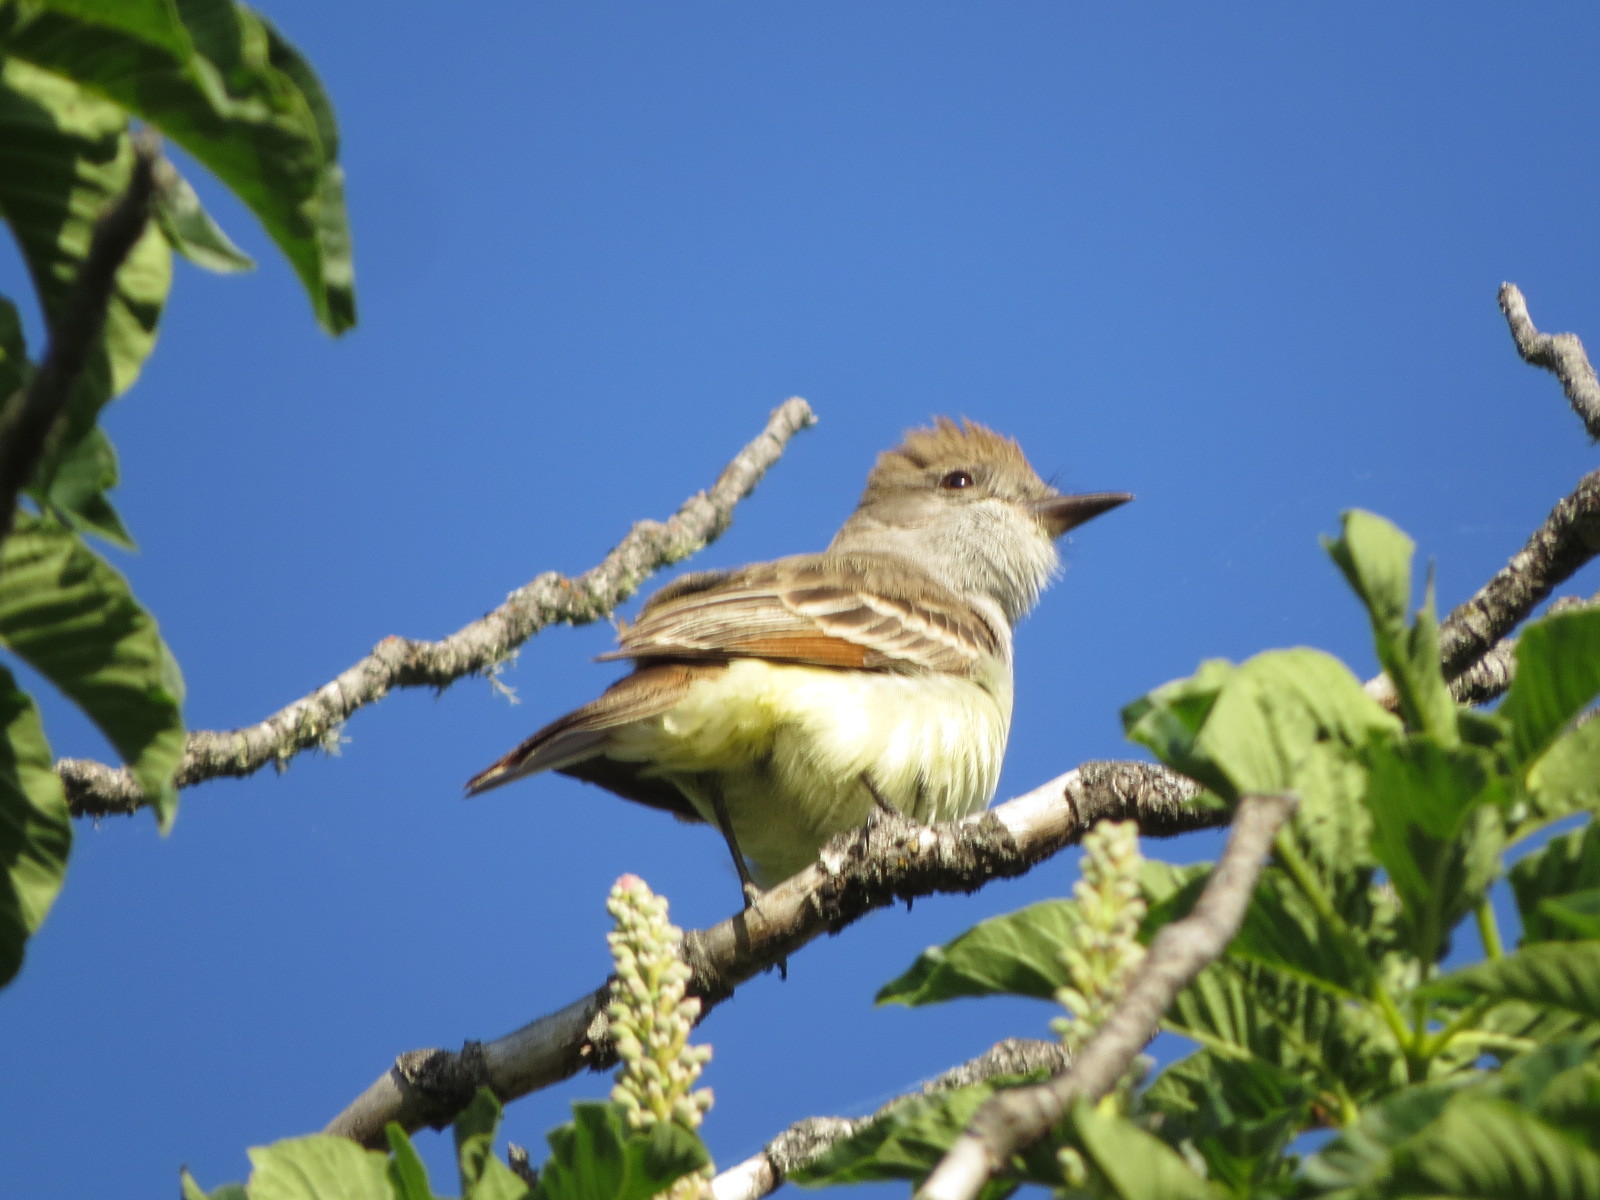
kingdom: Animalia
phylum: Chordata
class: Aves
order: Passeriformes
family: Tyrannidae
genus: Myiarchus
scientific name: Myiarchus cinerascens
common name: Ash-throated flycatcher
